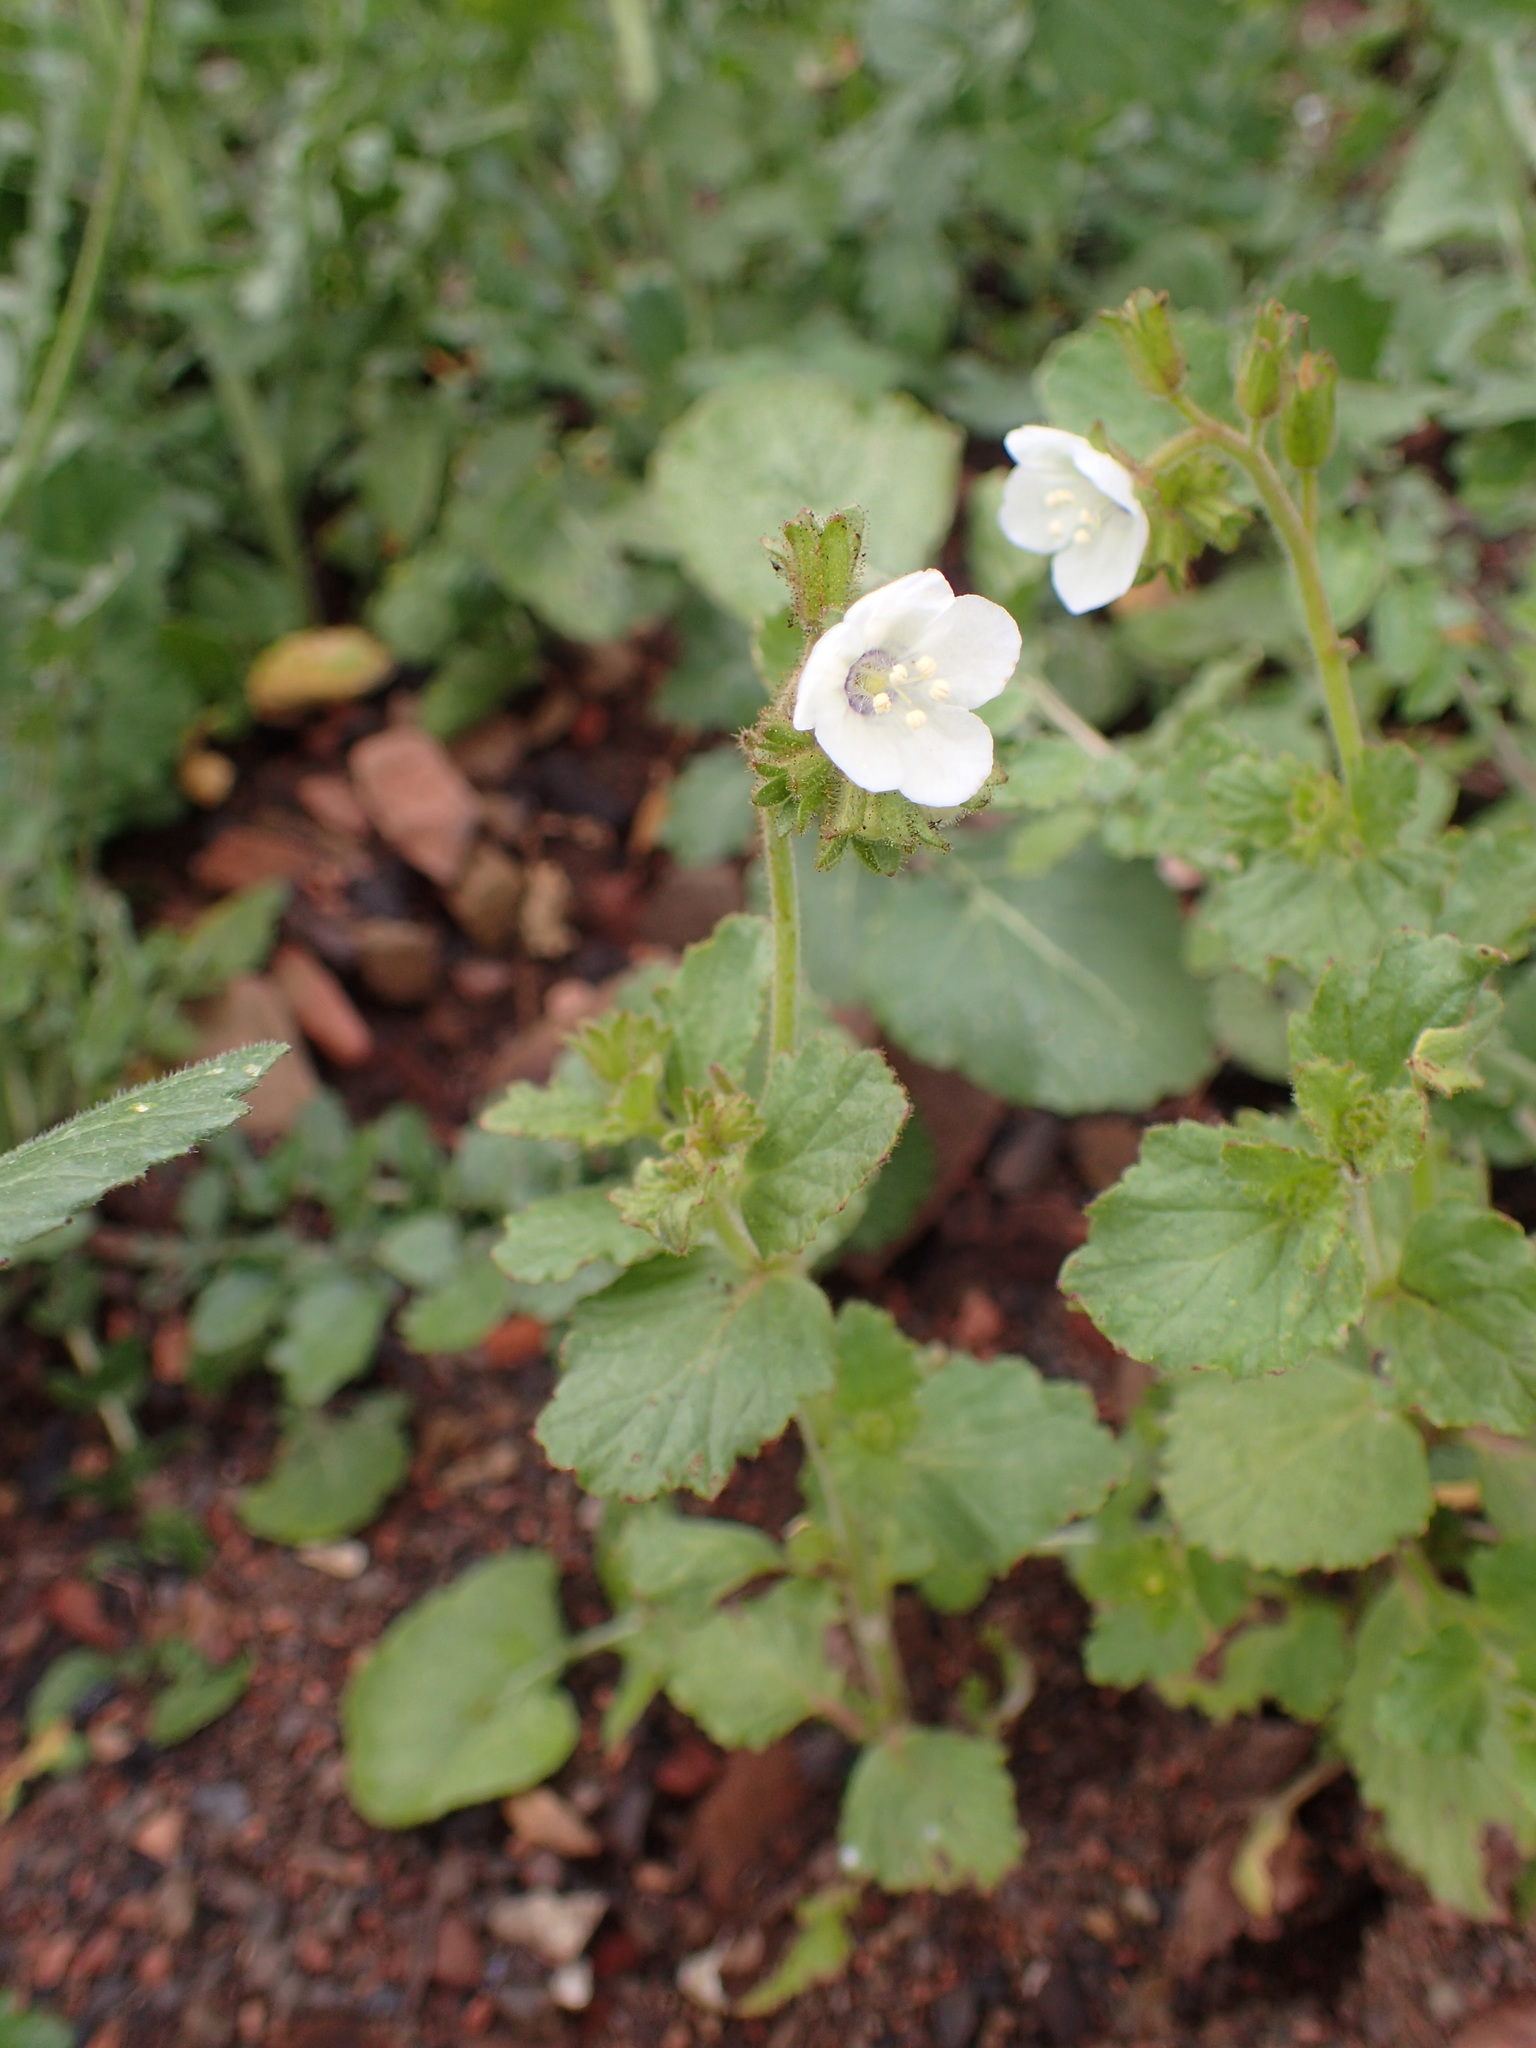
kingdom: Plantae
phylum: Tracheophyta
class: Magnoliopsida
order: Boraginales
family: Hydrophyllaceae
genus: Phacelia
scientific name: Phacelia viscida
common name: Sticky phacelia
